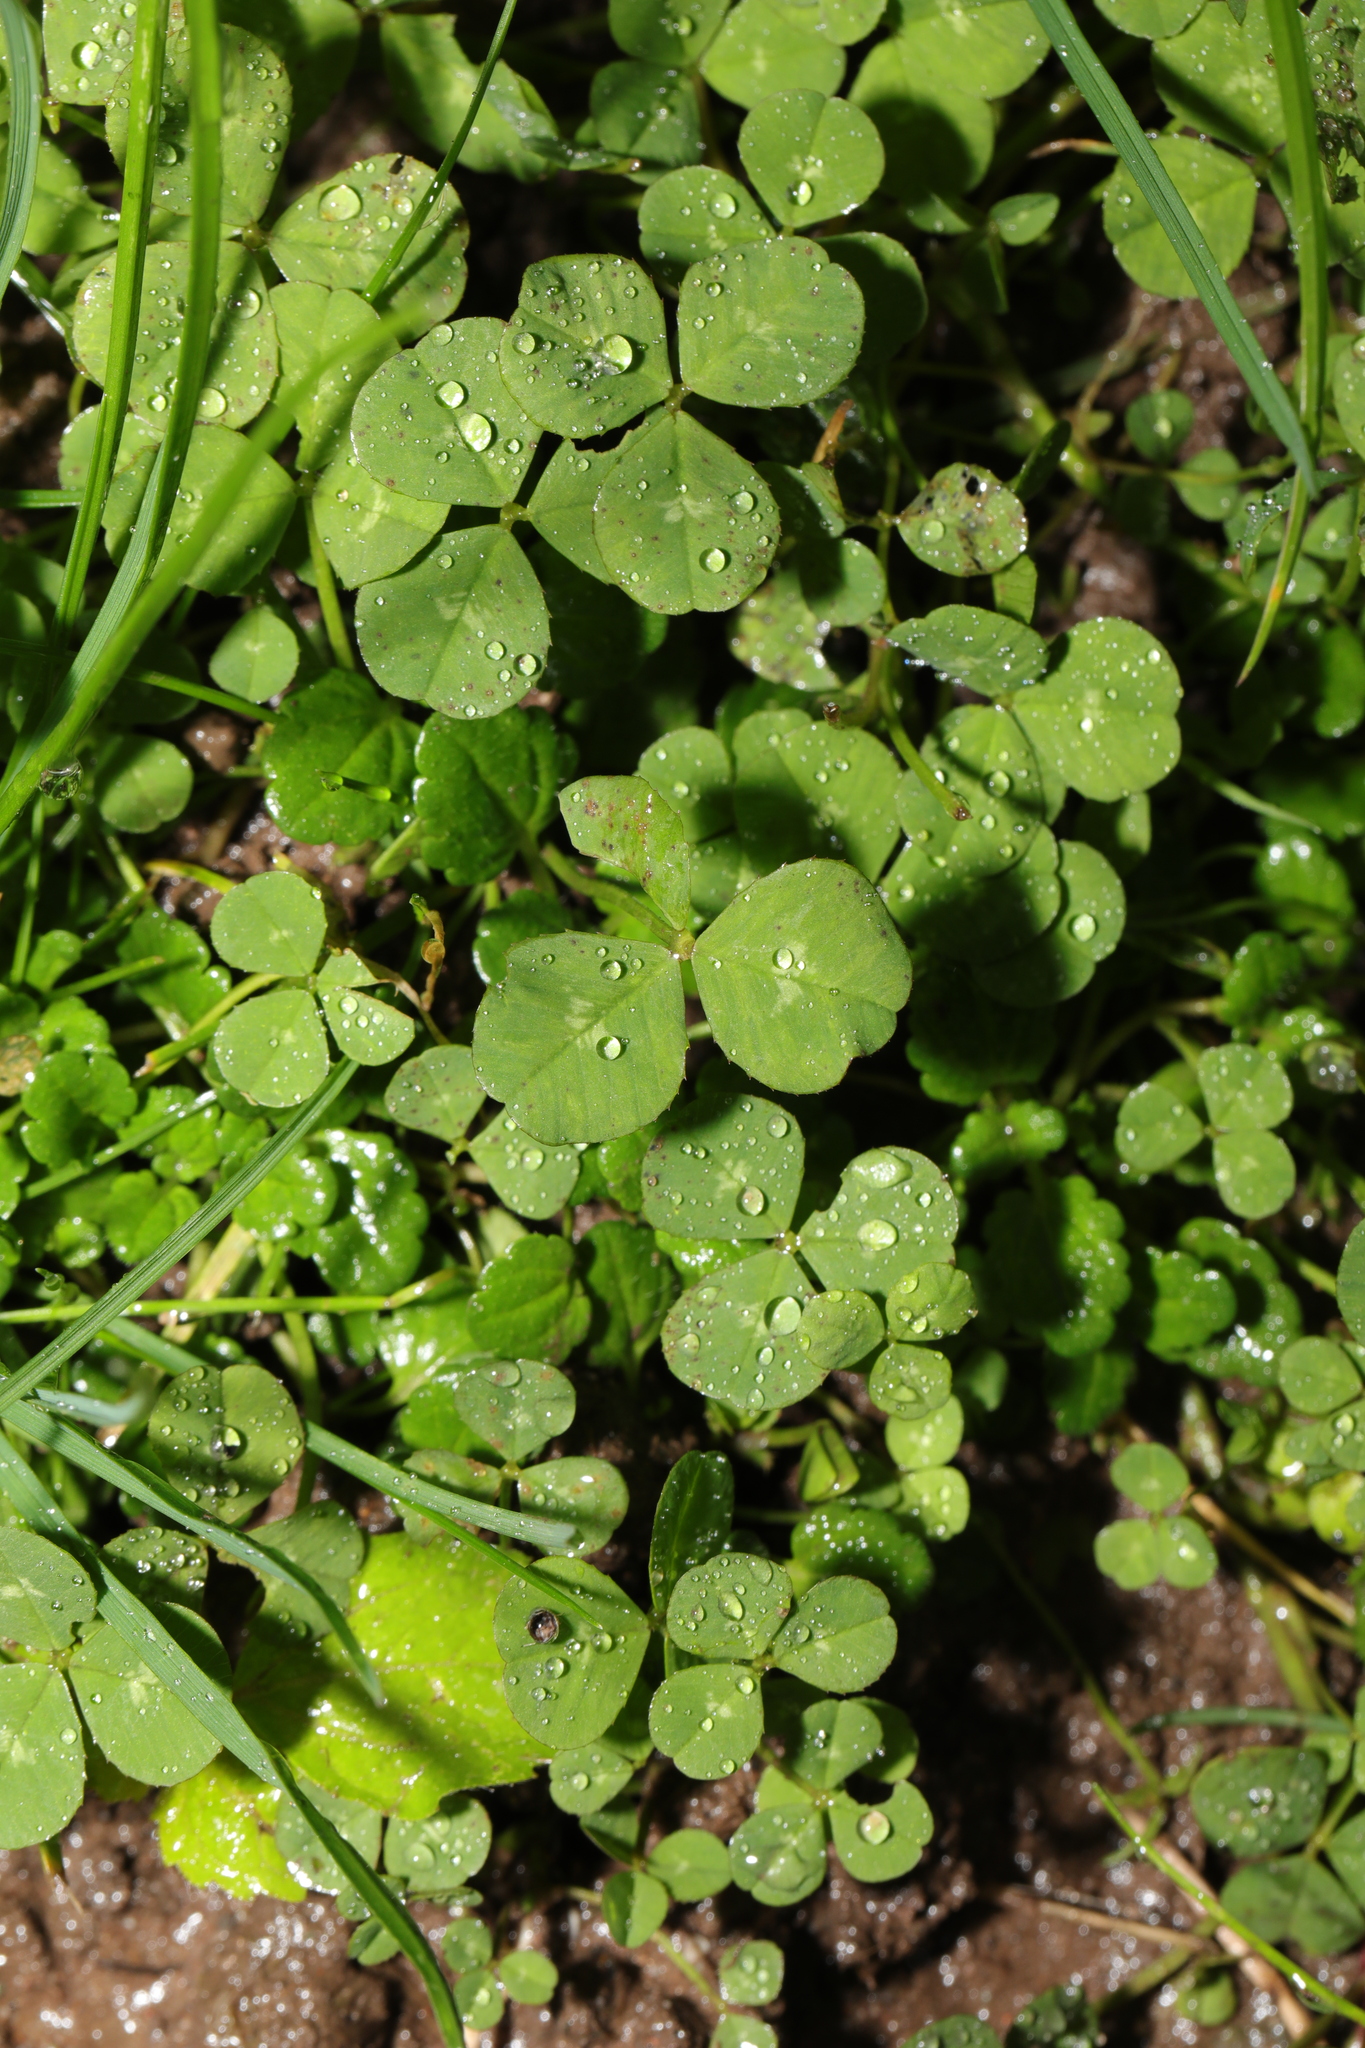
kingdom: Plantae
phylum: Tracheophyta
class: Magnoliopsida
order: Fabales
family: Fabaceae
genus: Trifolium
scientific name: Trifolium repens
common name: White clover
